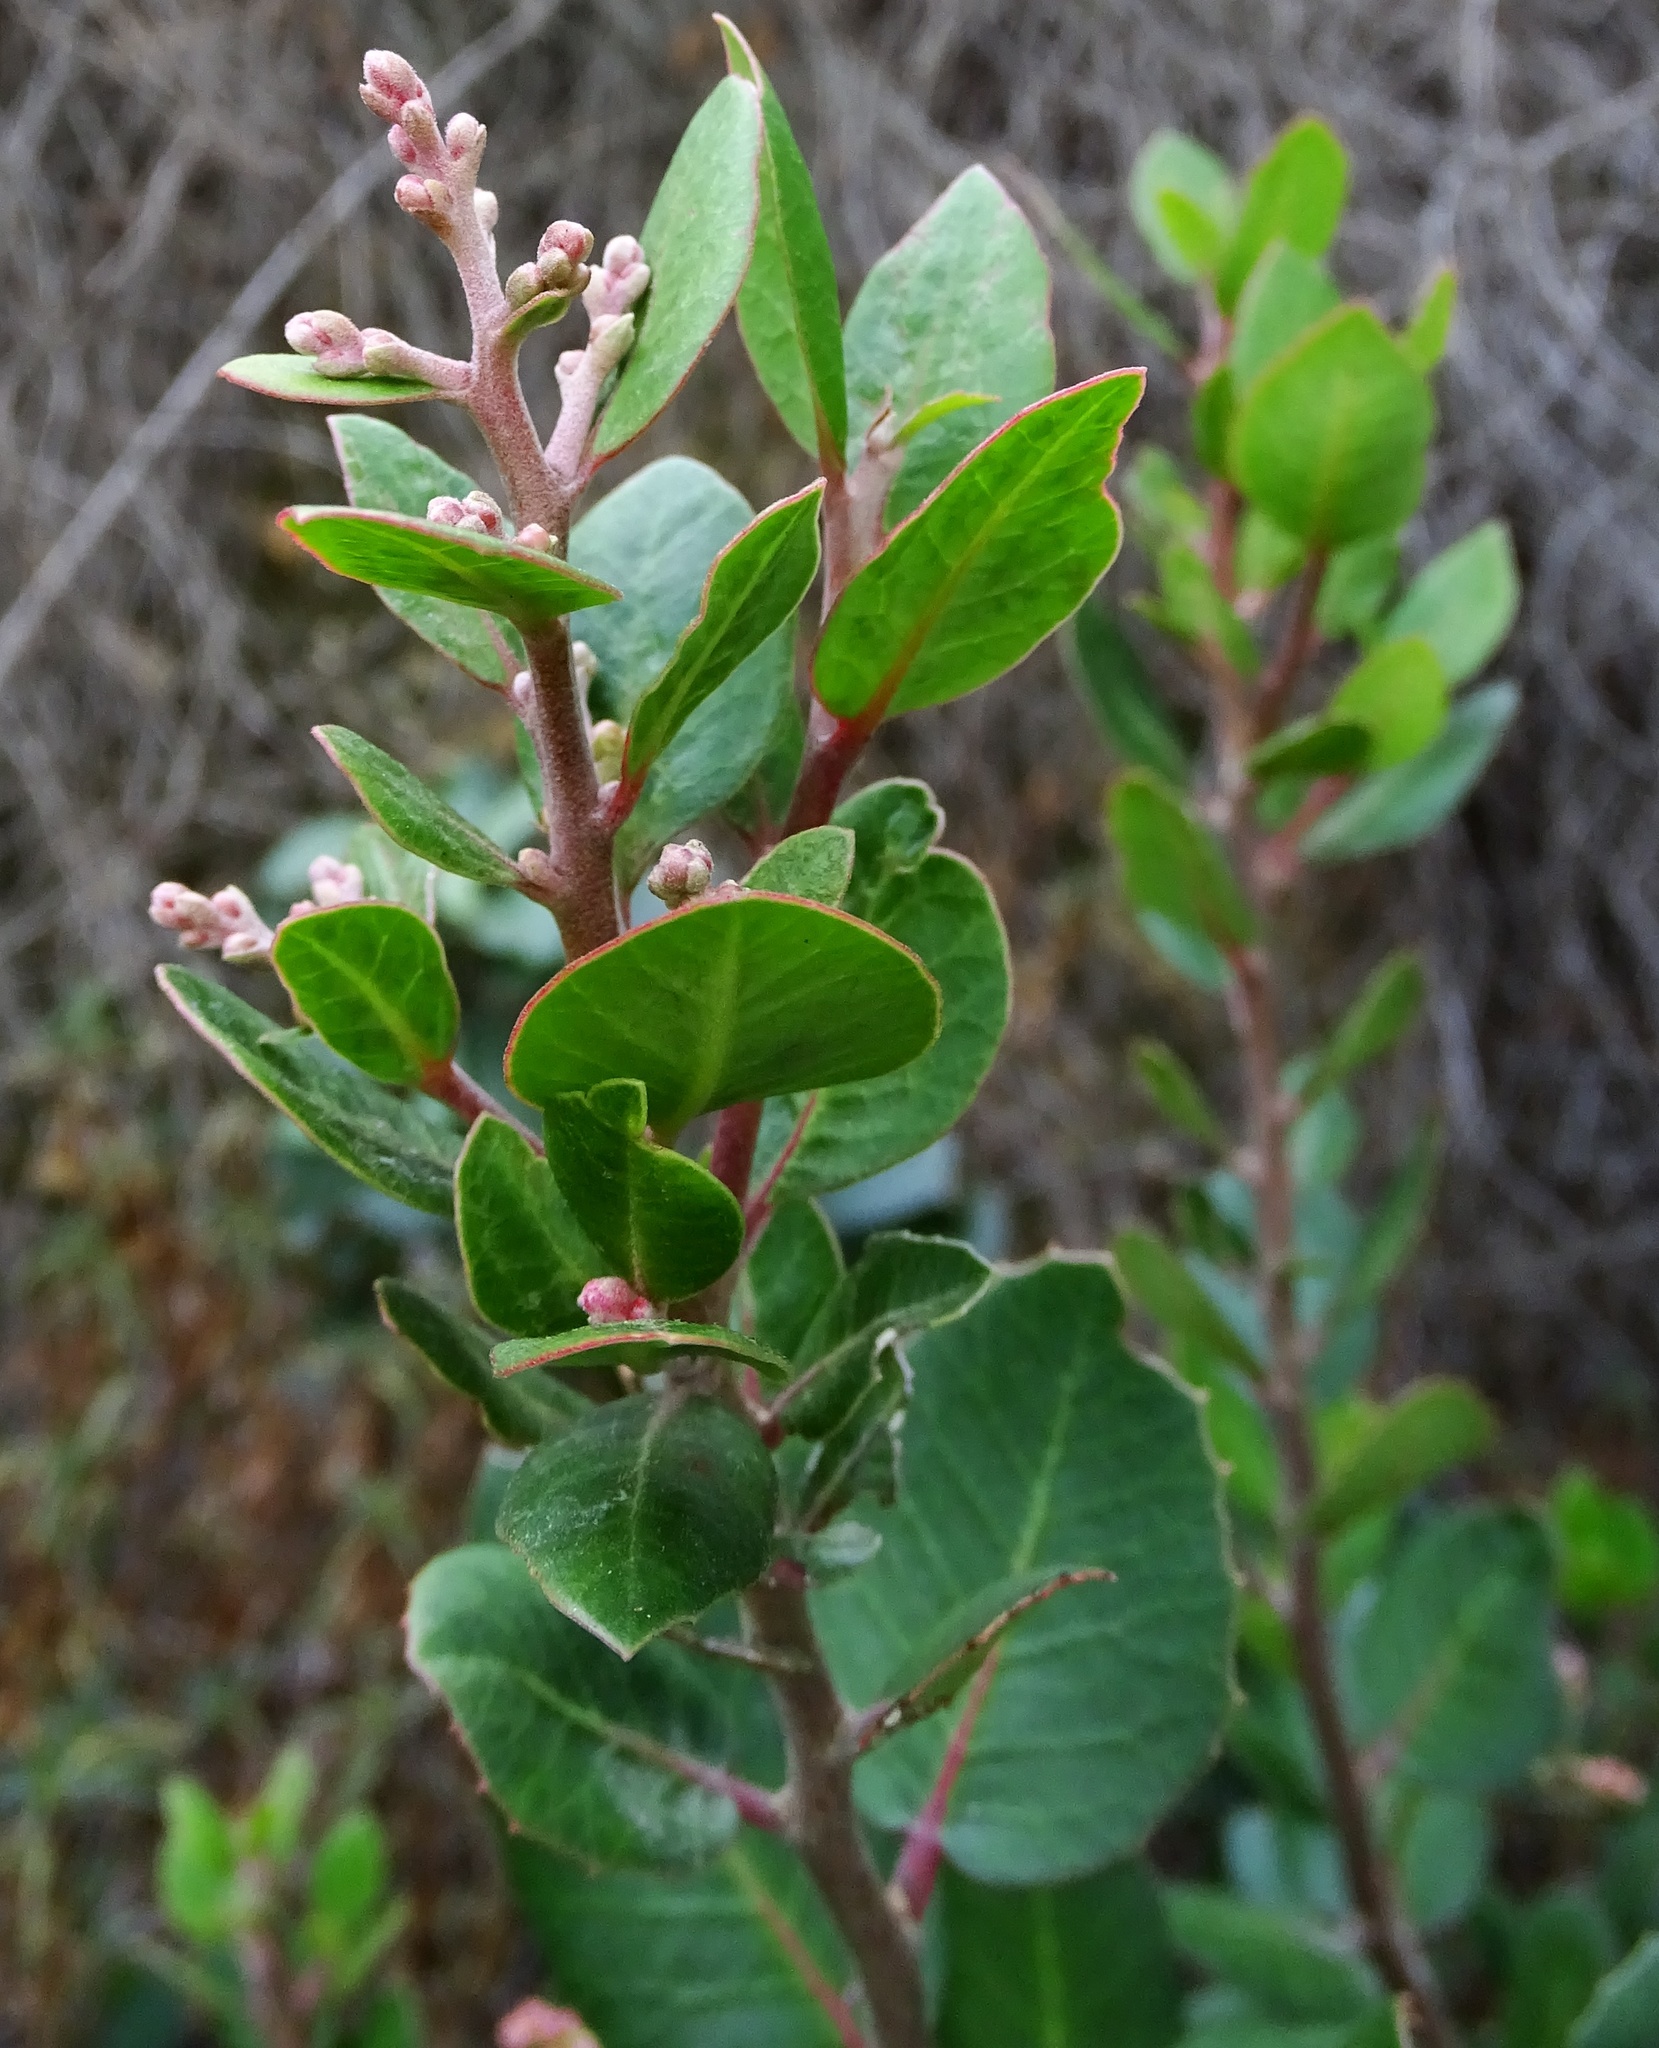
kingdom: Plantae
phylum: Tracheophyta
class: Magnoliopsida
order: Sapindales
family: Anacardiaceae
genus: Rhus
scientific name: Rhus integrifolia
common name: Lemonade sumac
